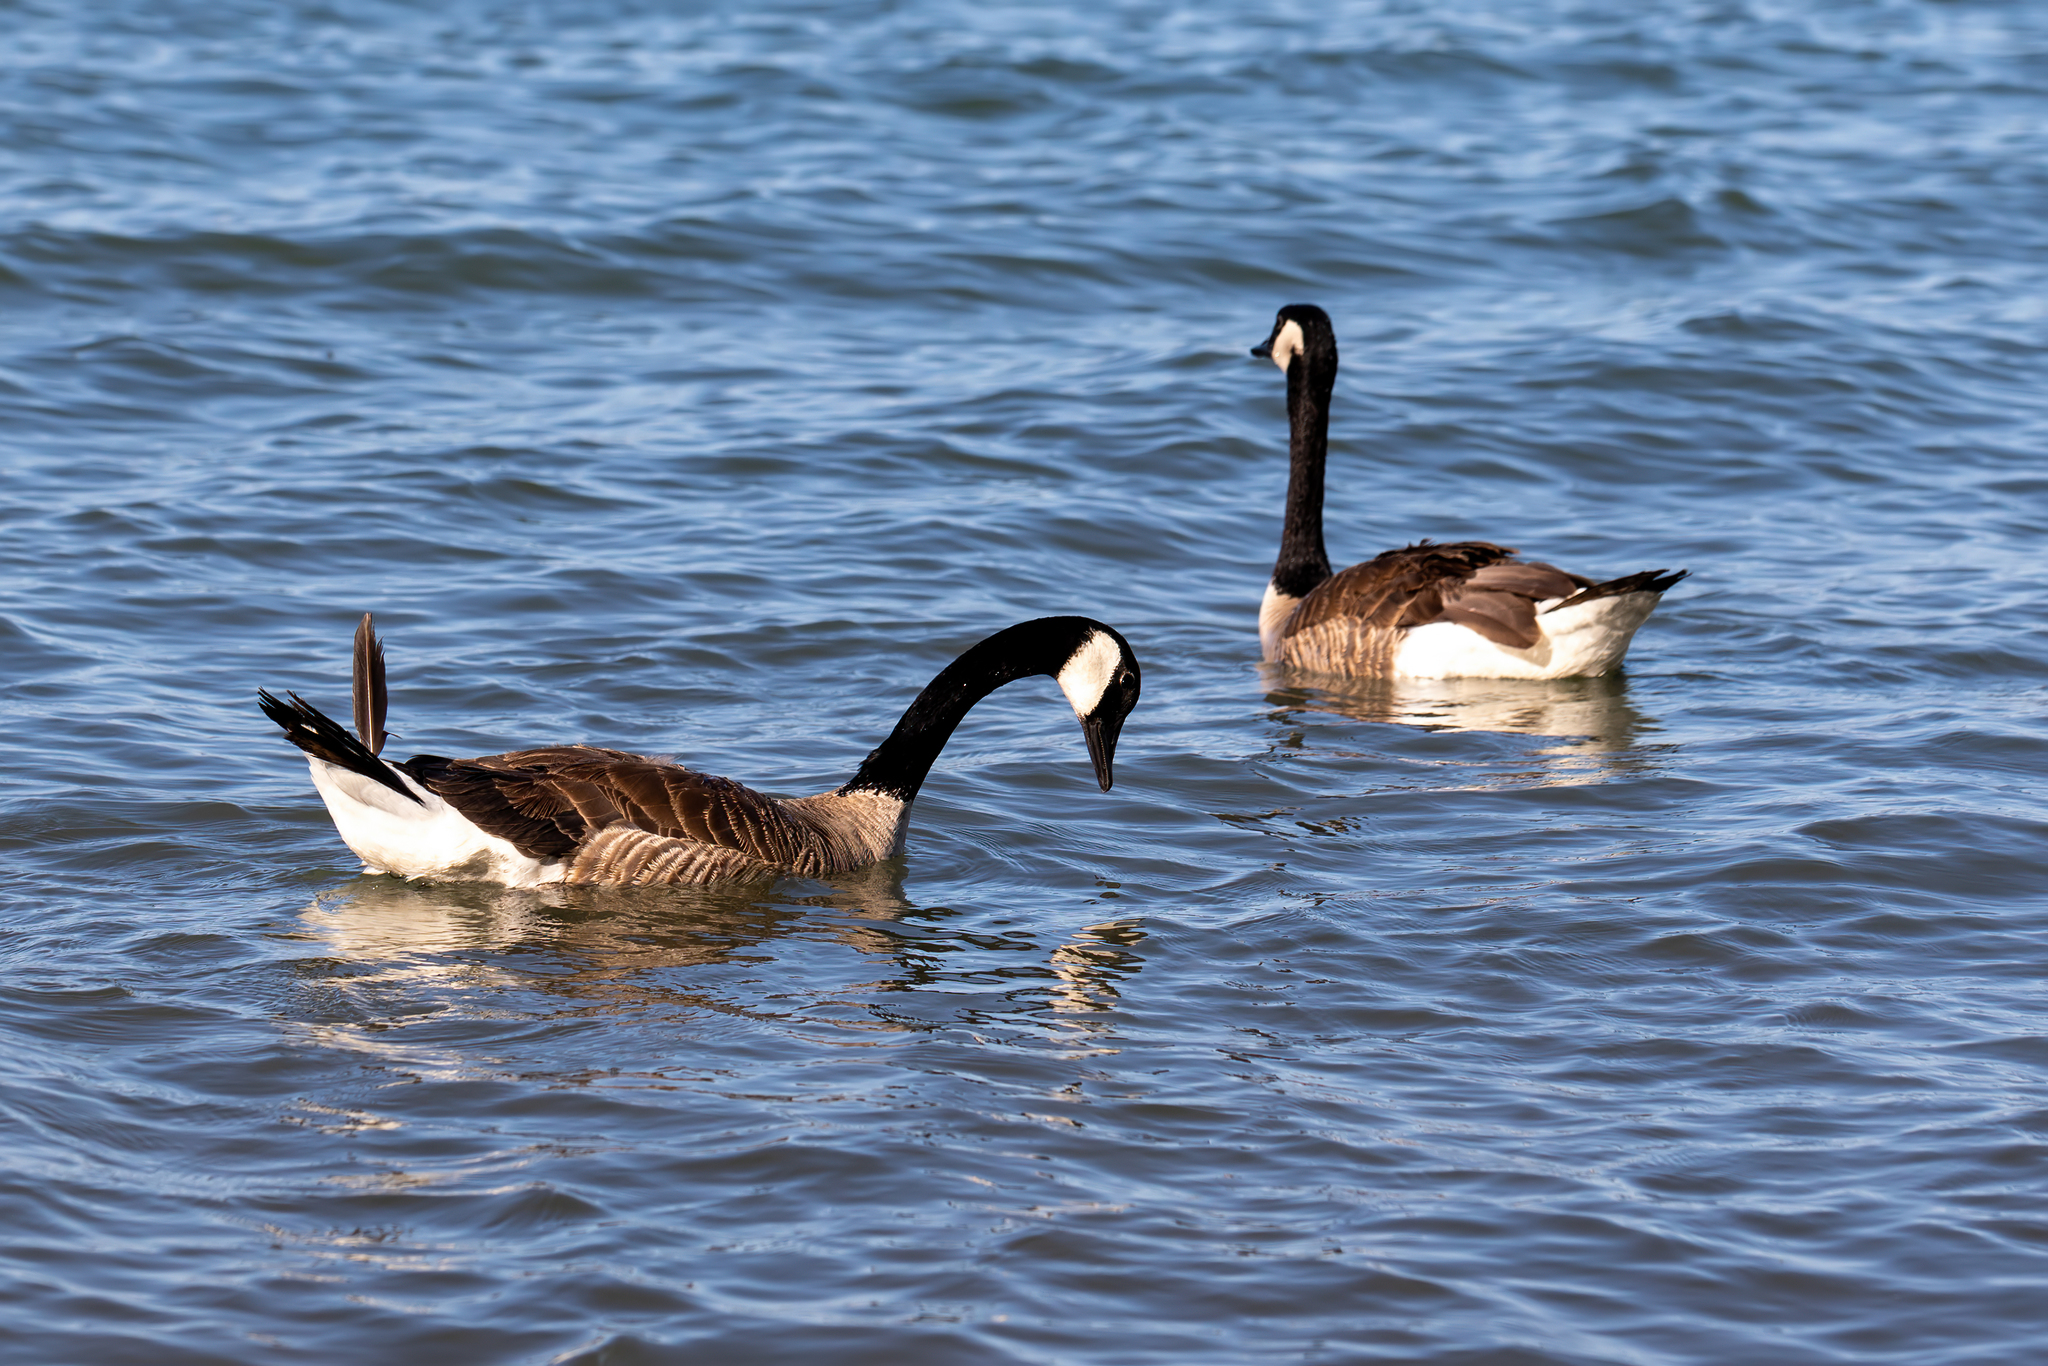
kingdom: Animalia
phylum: Chordata
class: Aves
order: Anseriformes
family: Anatidae
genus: Branta
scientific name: Branta canadensis
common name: Canada goose
